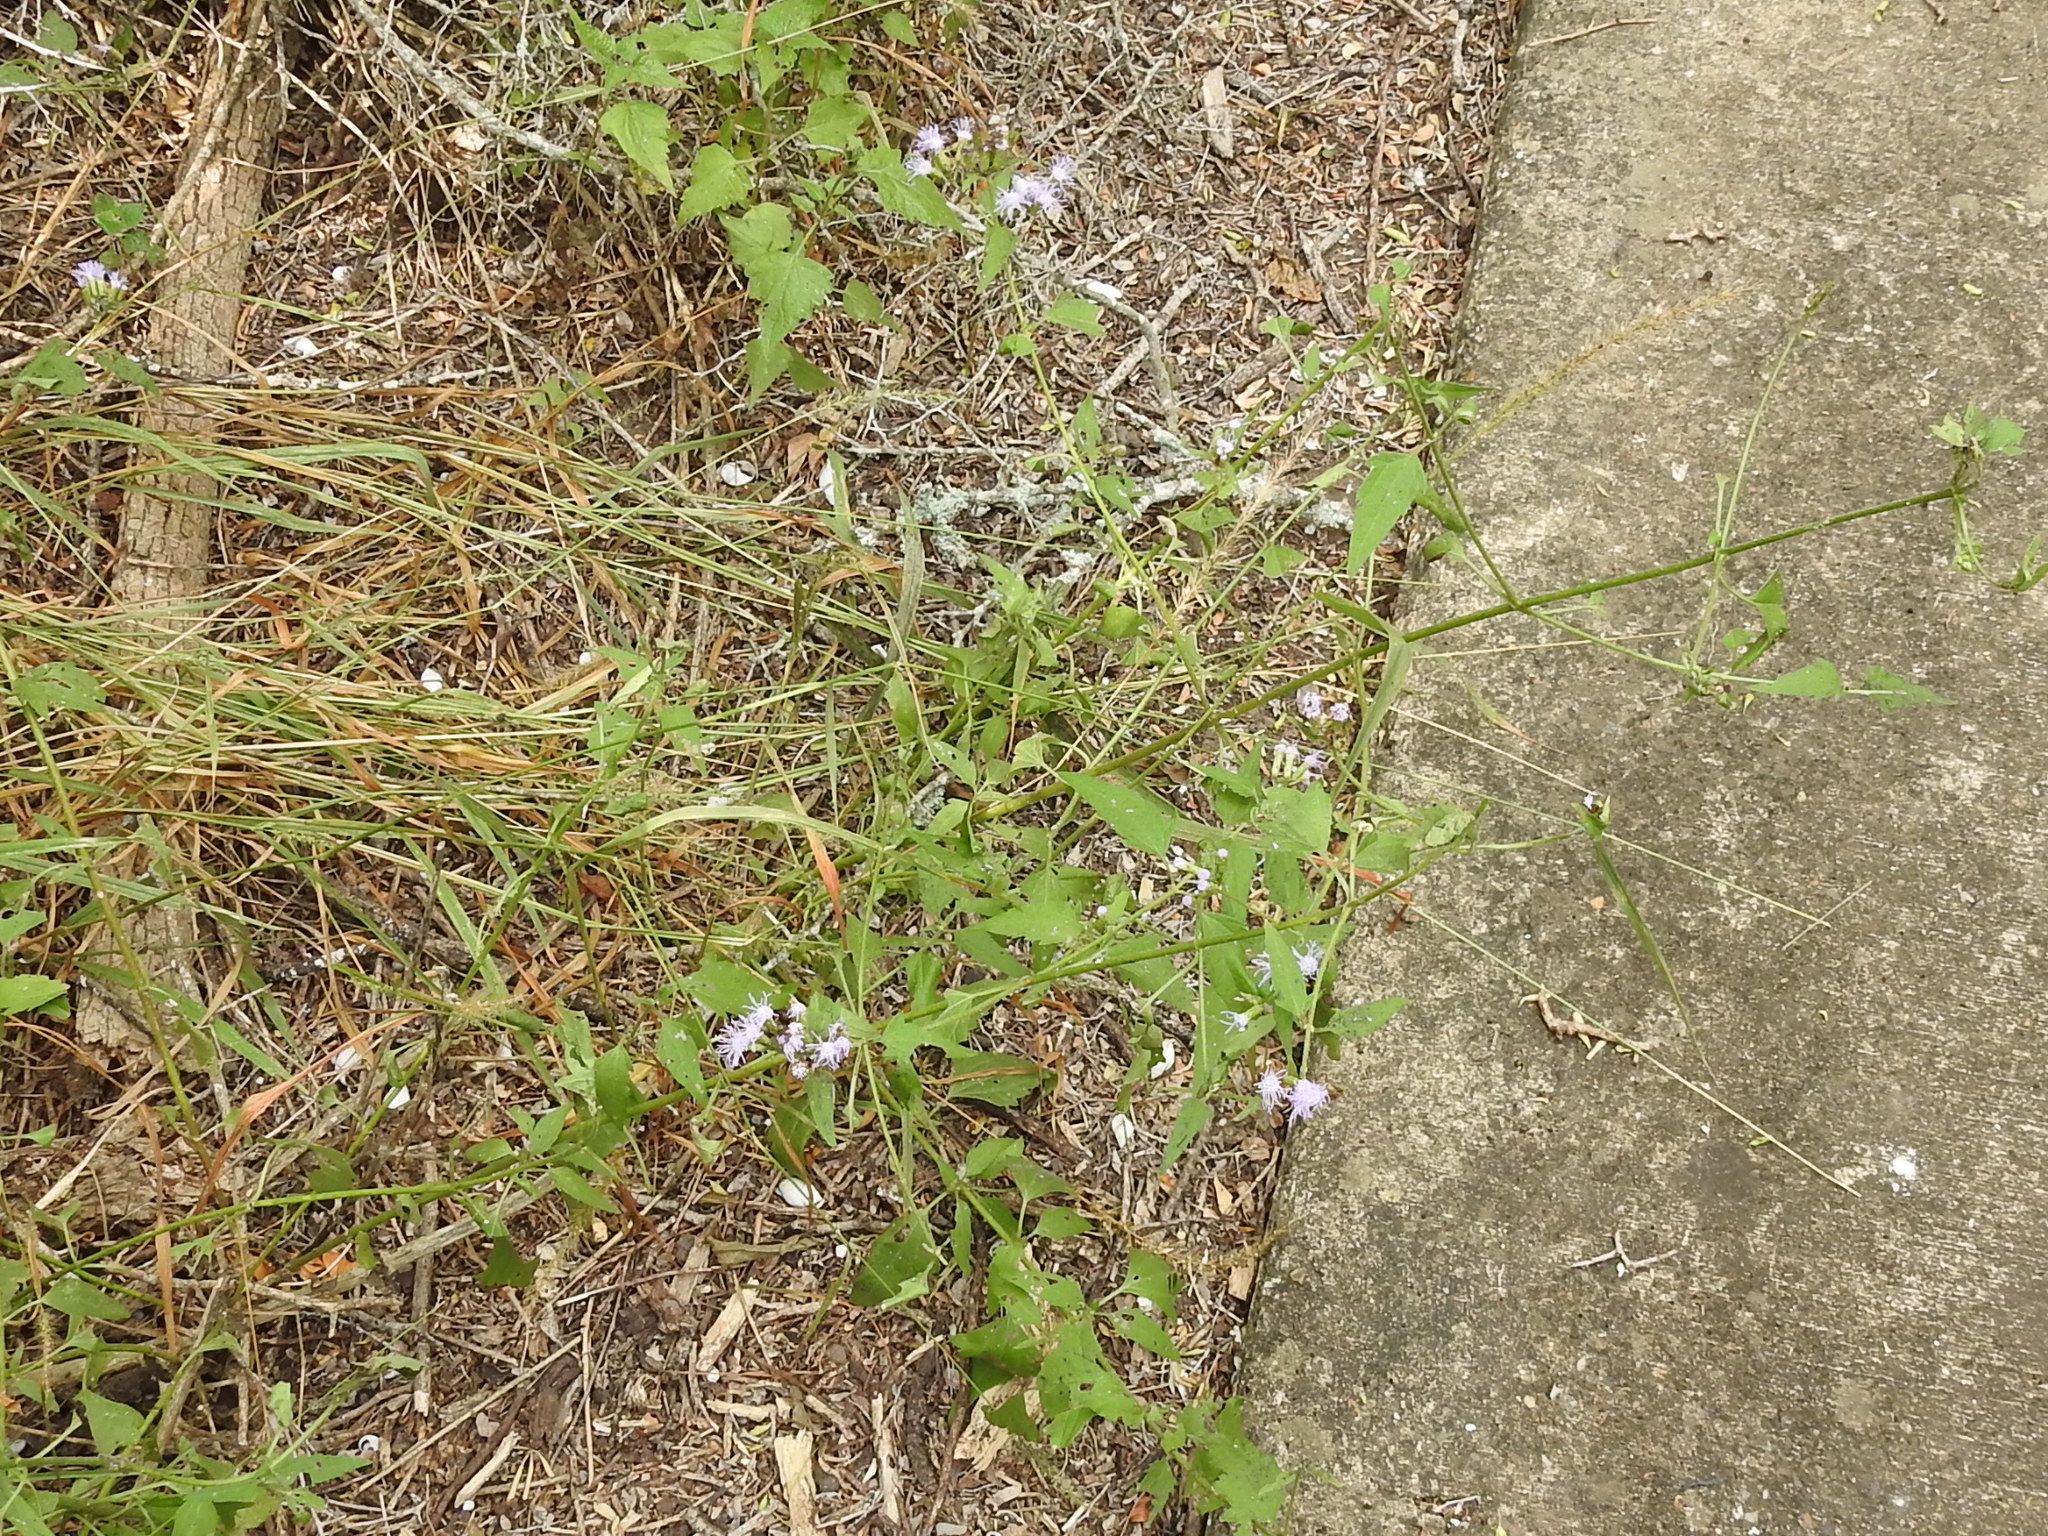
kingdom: Plantae
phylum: Tracheophyta
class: Magnoliopsida
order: Asterales
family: Asteraceae
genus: Chromolaena
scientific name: Chromolaena odorata
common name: Siamweed
